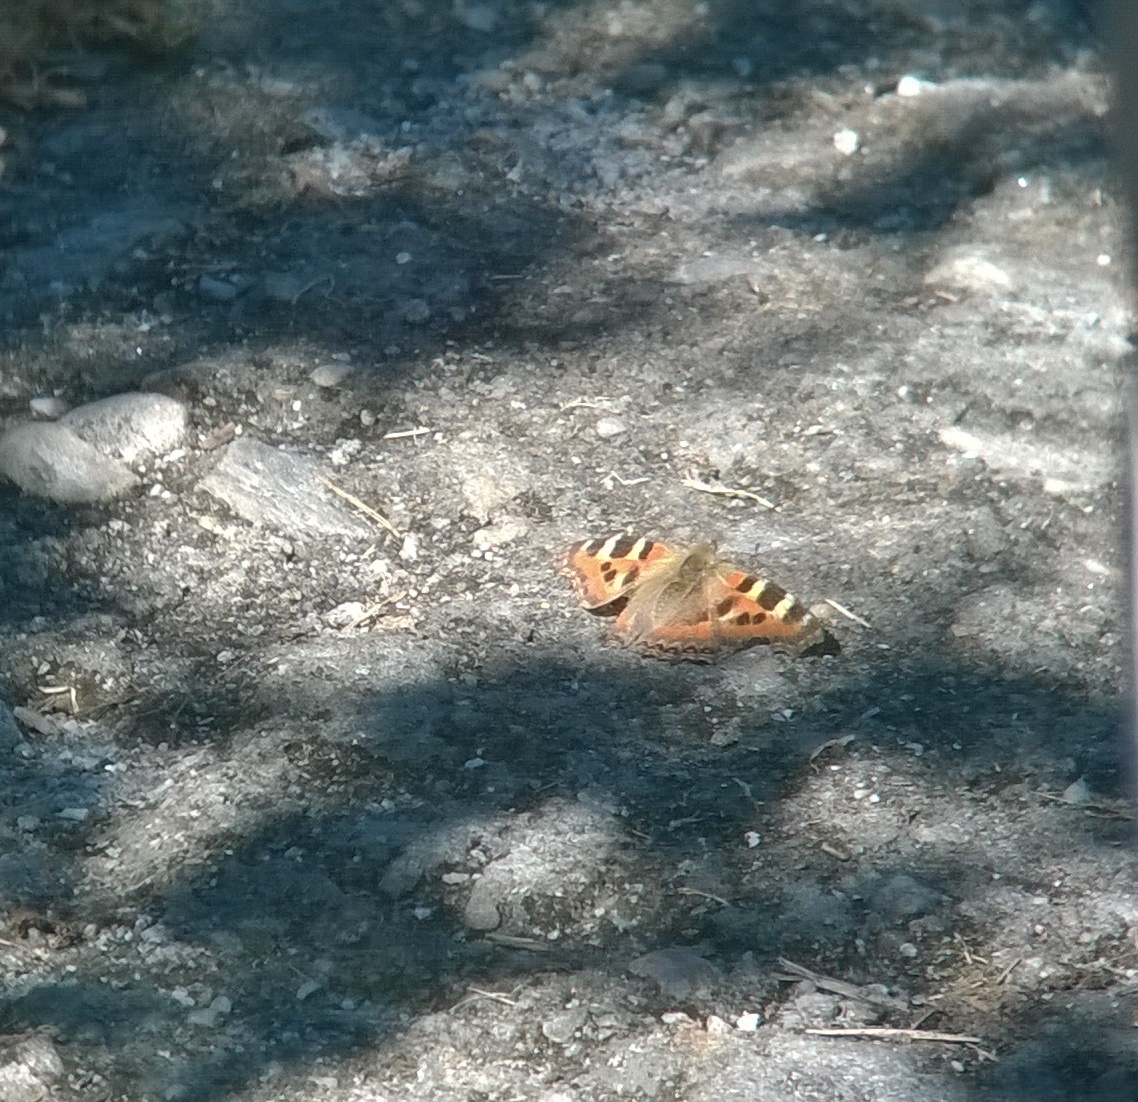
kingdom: Animalia
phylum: Arthropoda
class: Insecta
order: Lepidoptera
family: Nymphalidae
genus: Aglais
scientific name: Aglais caschmirensis
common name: Indian tortoiseshell
